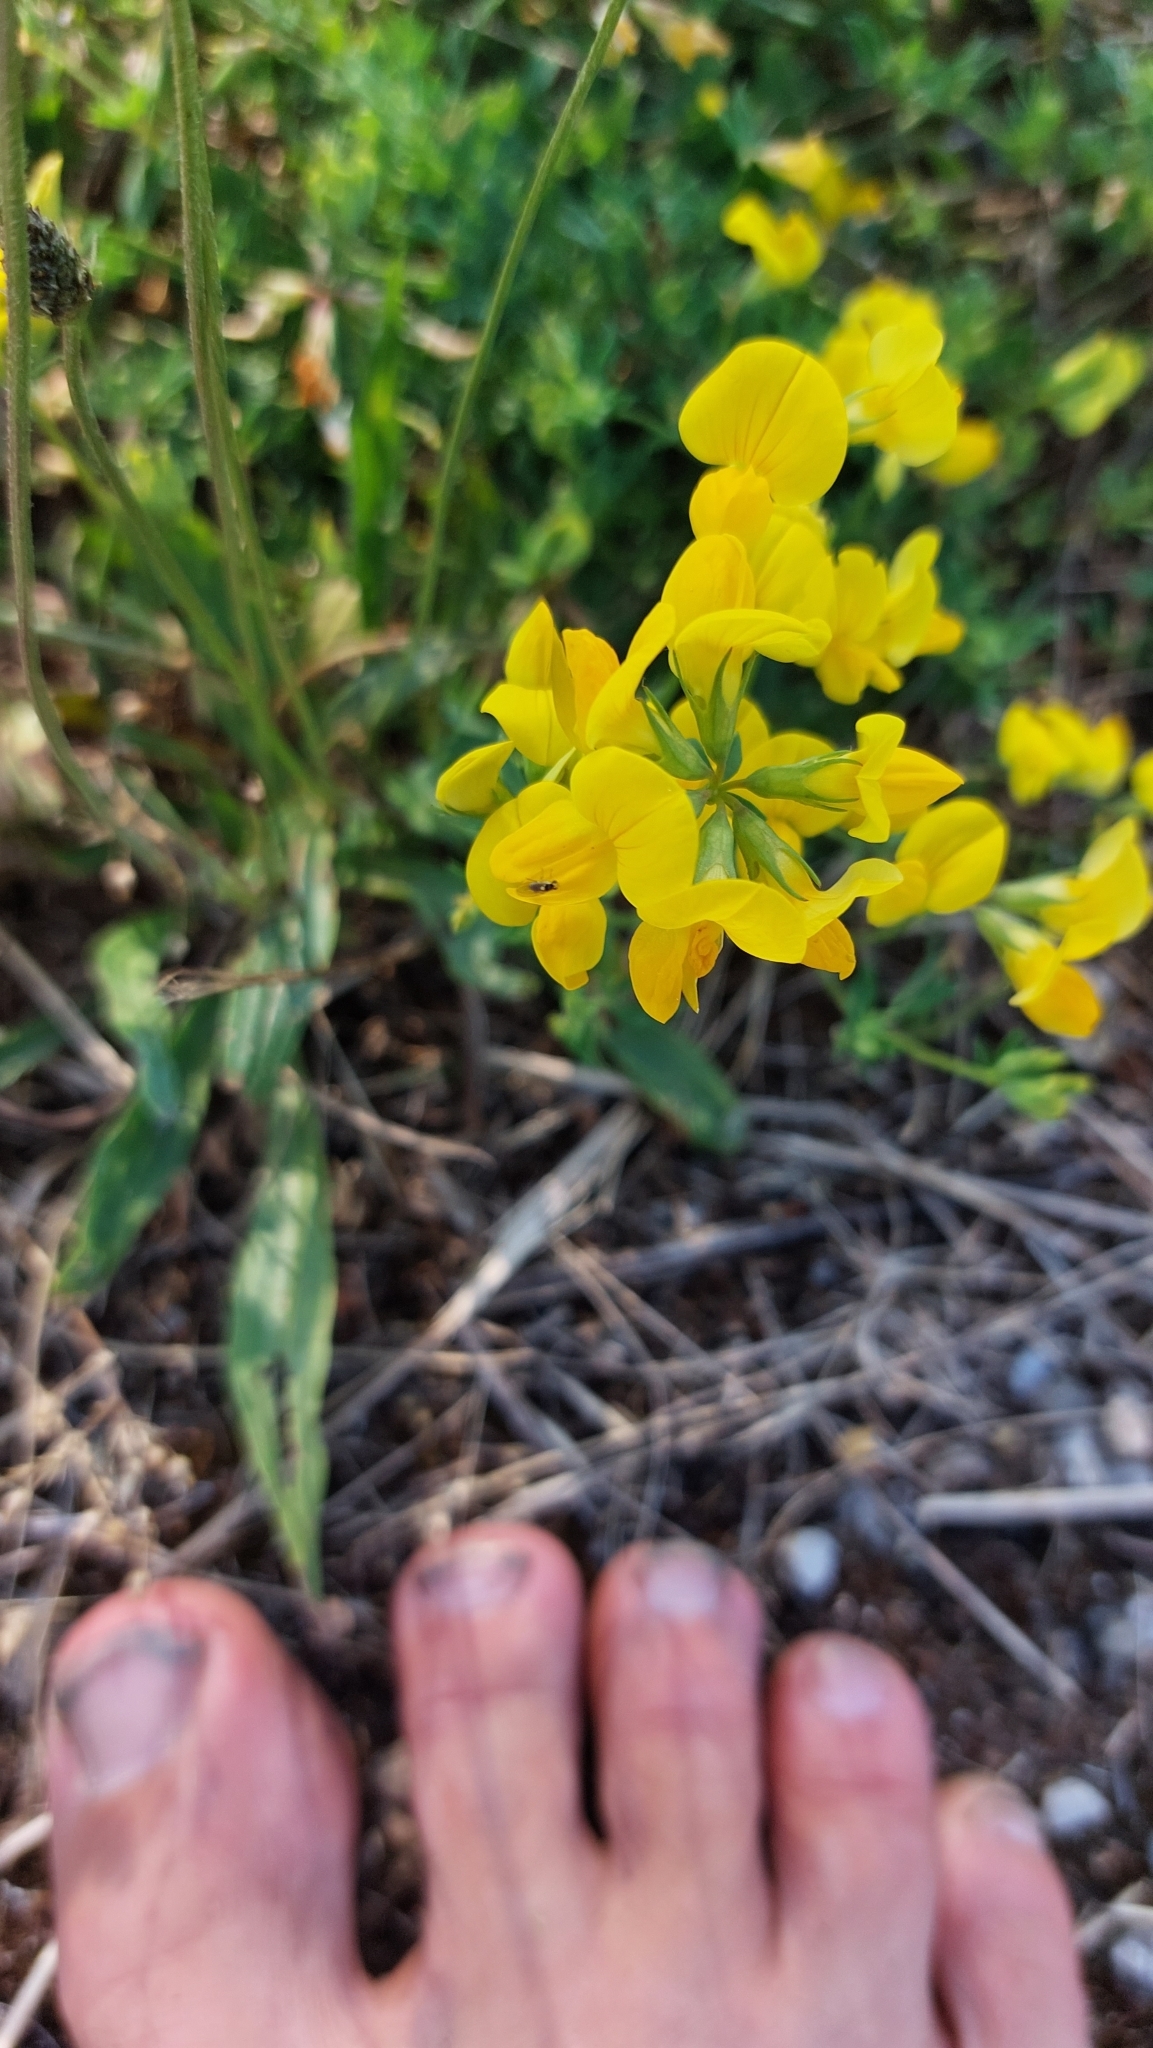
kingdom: Plantae
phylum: Tracheophyta
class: Magnoliopsida
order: Fabales
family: Fabaceae
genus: Lotus
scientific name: Lotus corniculatus
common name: Common bird's-foot-trefoil
